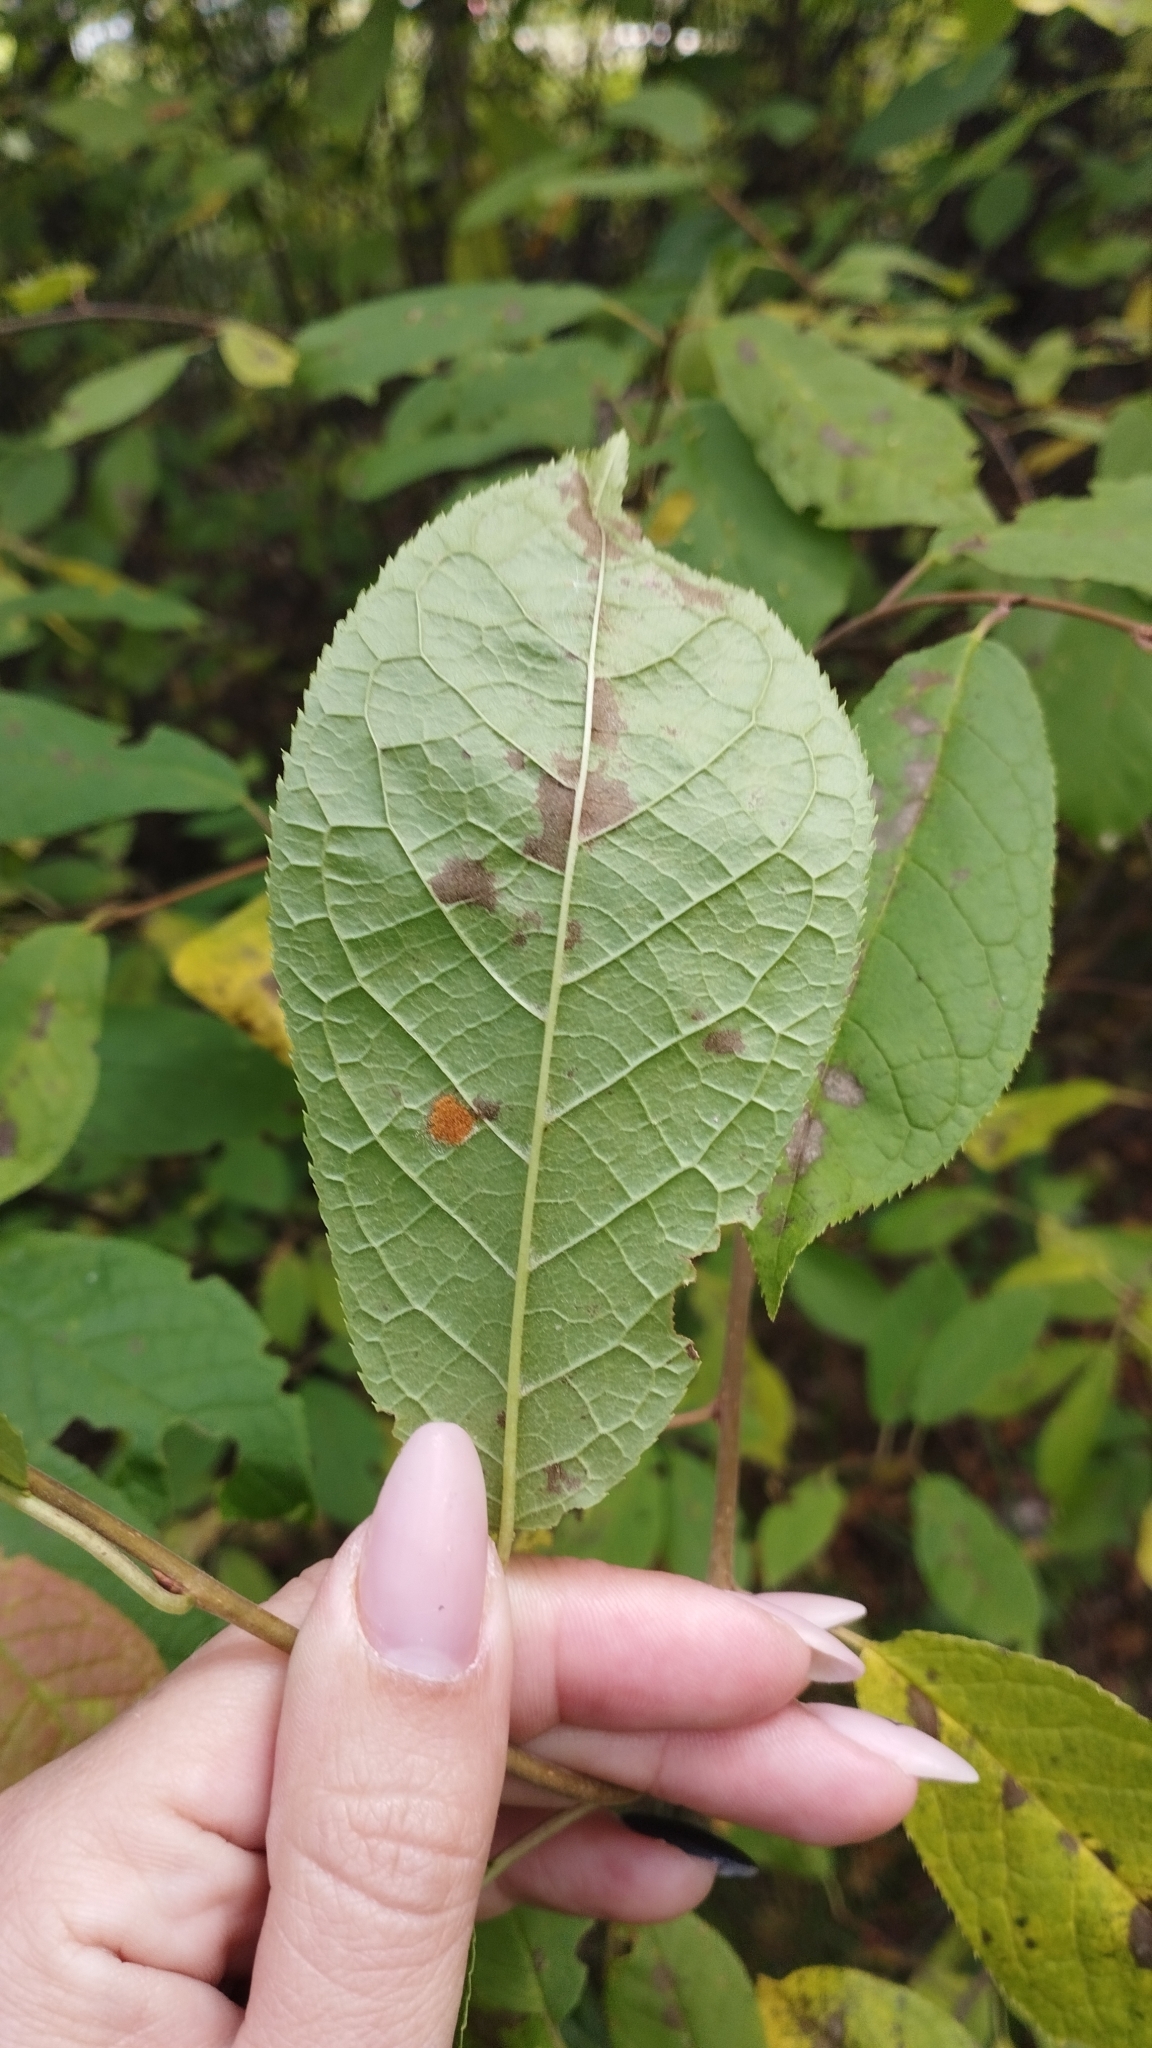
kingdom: Plantae
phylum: Tracheophyta
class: Magnoliopsida
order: Rosales
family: Rosaceae
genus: Prunus
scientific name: Prunus padus
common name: Bird cherry
